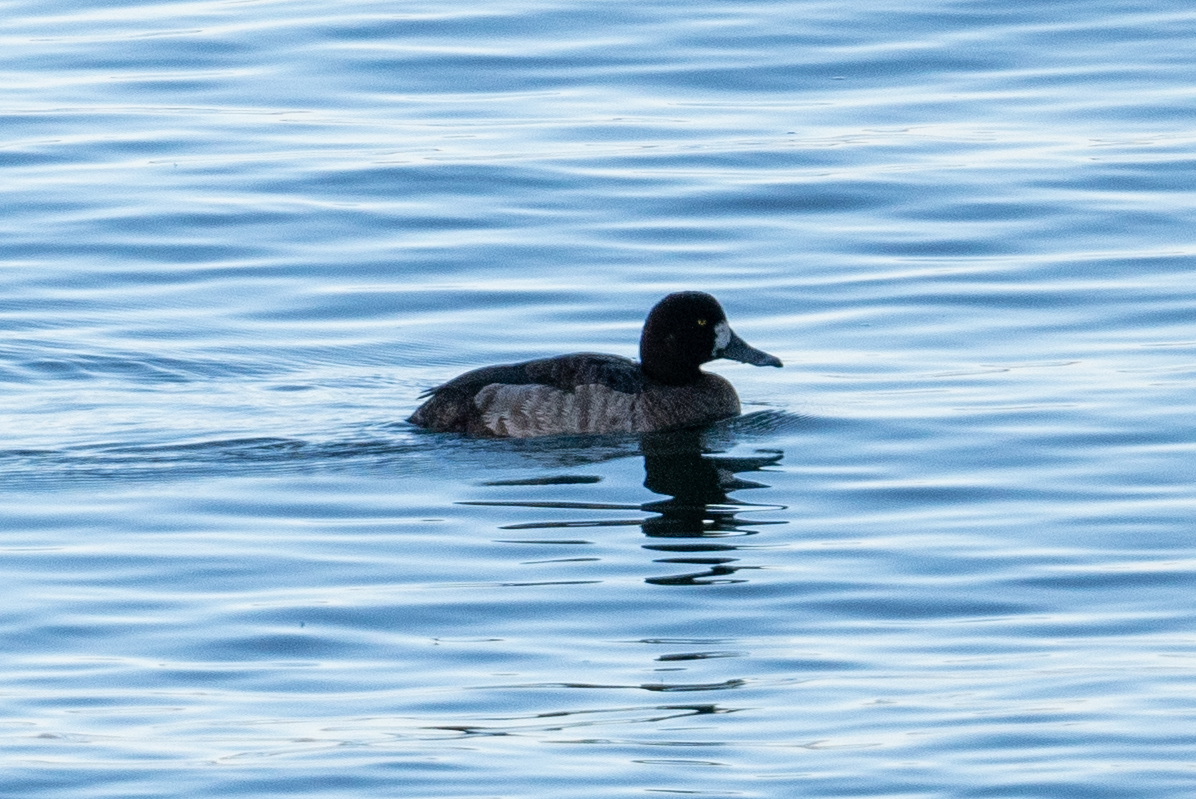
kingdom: Animalia
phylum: Chordata
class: Aves
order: Anseriformes
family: Anatidae
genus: Aythya
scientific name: Aythya marila
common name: Greater scaup
